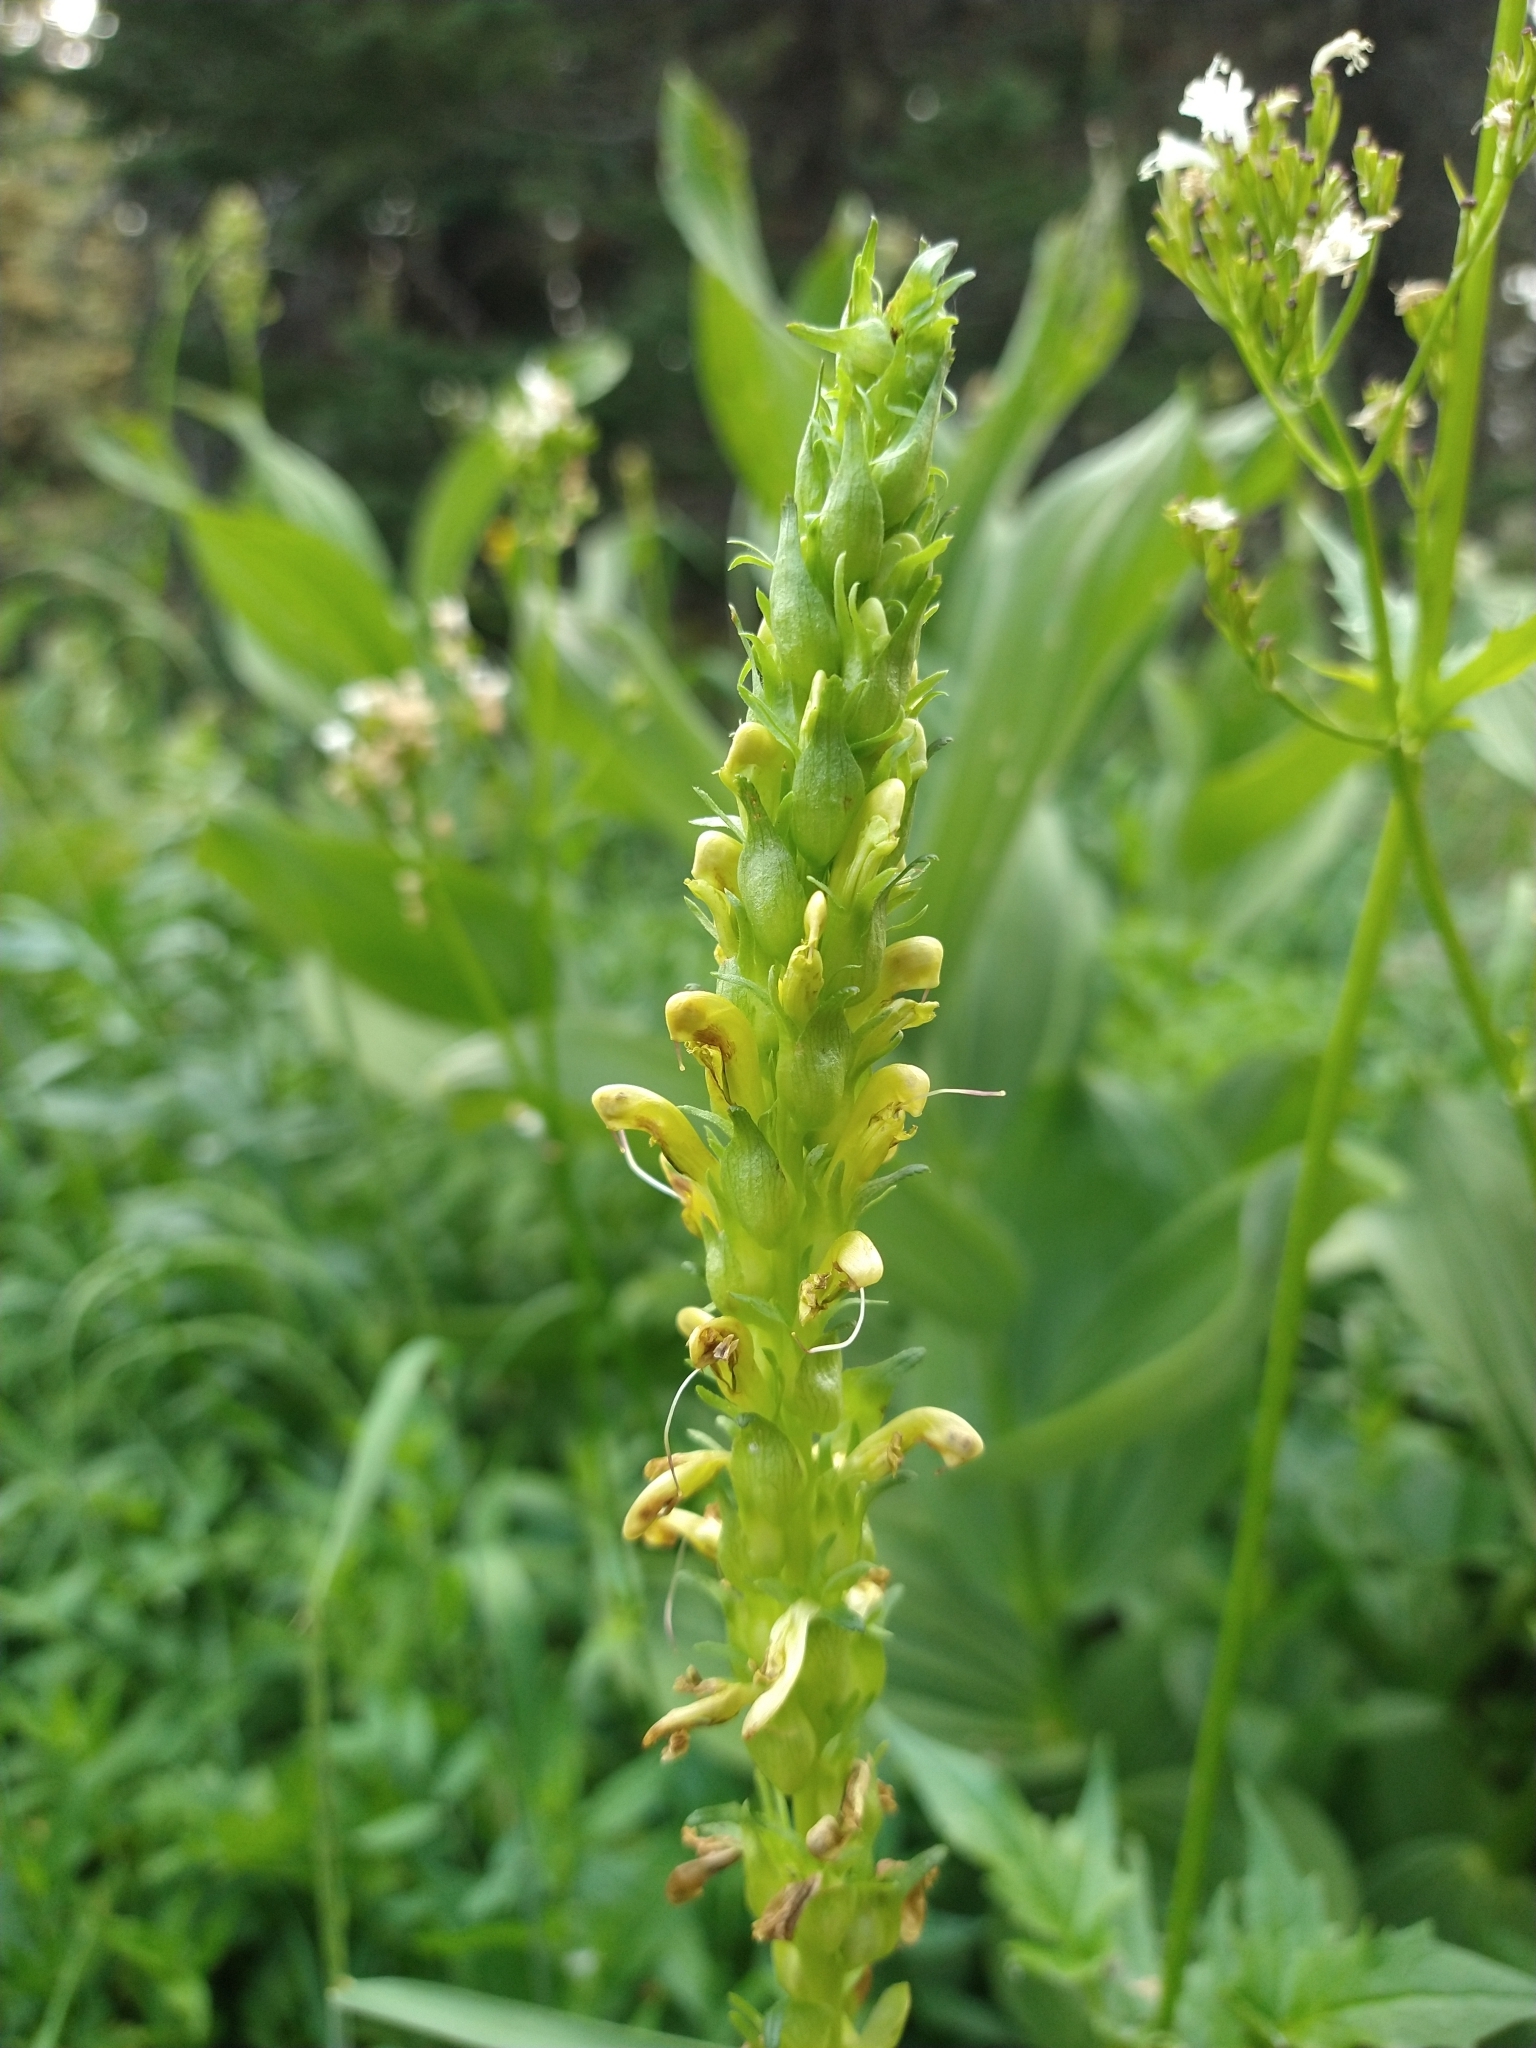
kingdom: Plantae
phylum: Tracheophyta
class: Magnoliopsida
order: Lamiales
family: Orobanchaceae
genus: Pedicularis
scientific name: Pedicularis bracteosa
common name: Bracted lousewort
